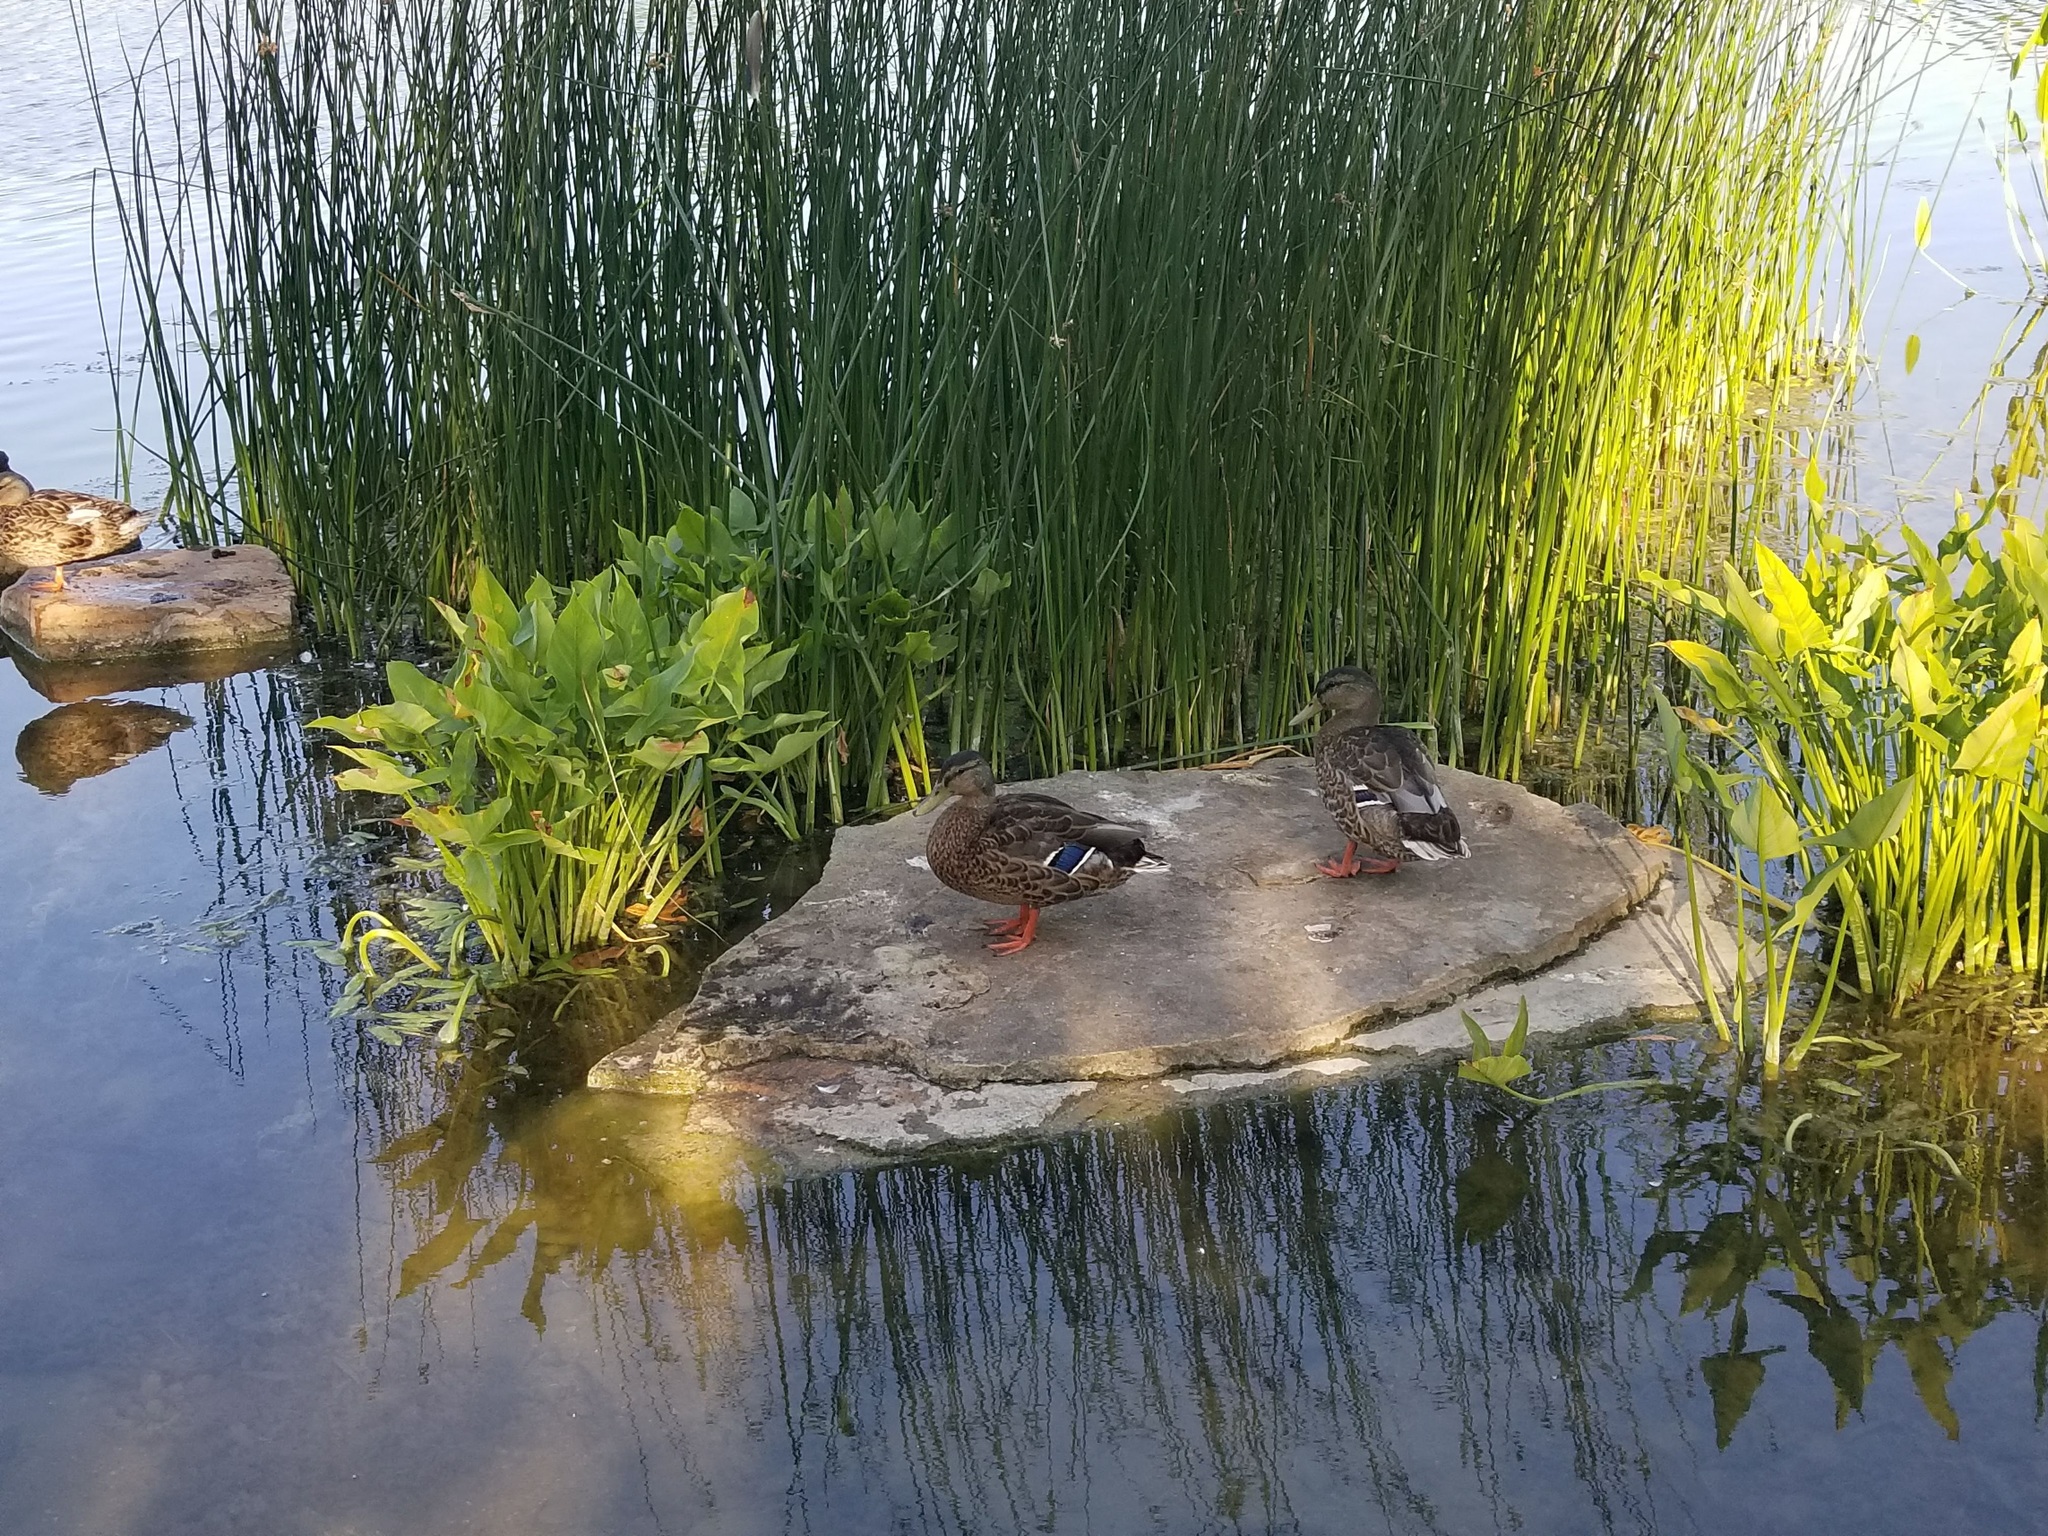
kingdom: Animalia
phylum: Chordata
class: Aves
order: Anseriformes
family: Anatidae
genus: Anas
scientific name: Anas platyrhynchos
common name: Mallard
